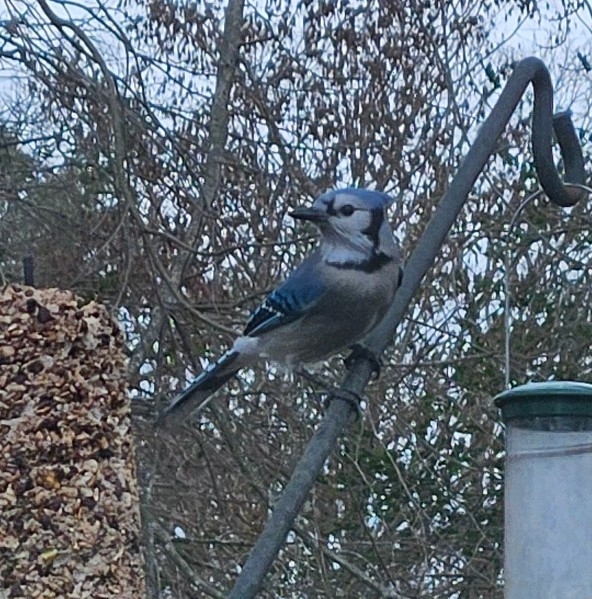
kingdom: Animalia
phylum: Chordata
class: Aves
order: Passeriformes
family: Corvidae
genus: Cyanocitta
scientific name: Cyanocitta cristata
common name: Blue jay
